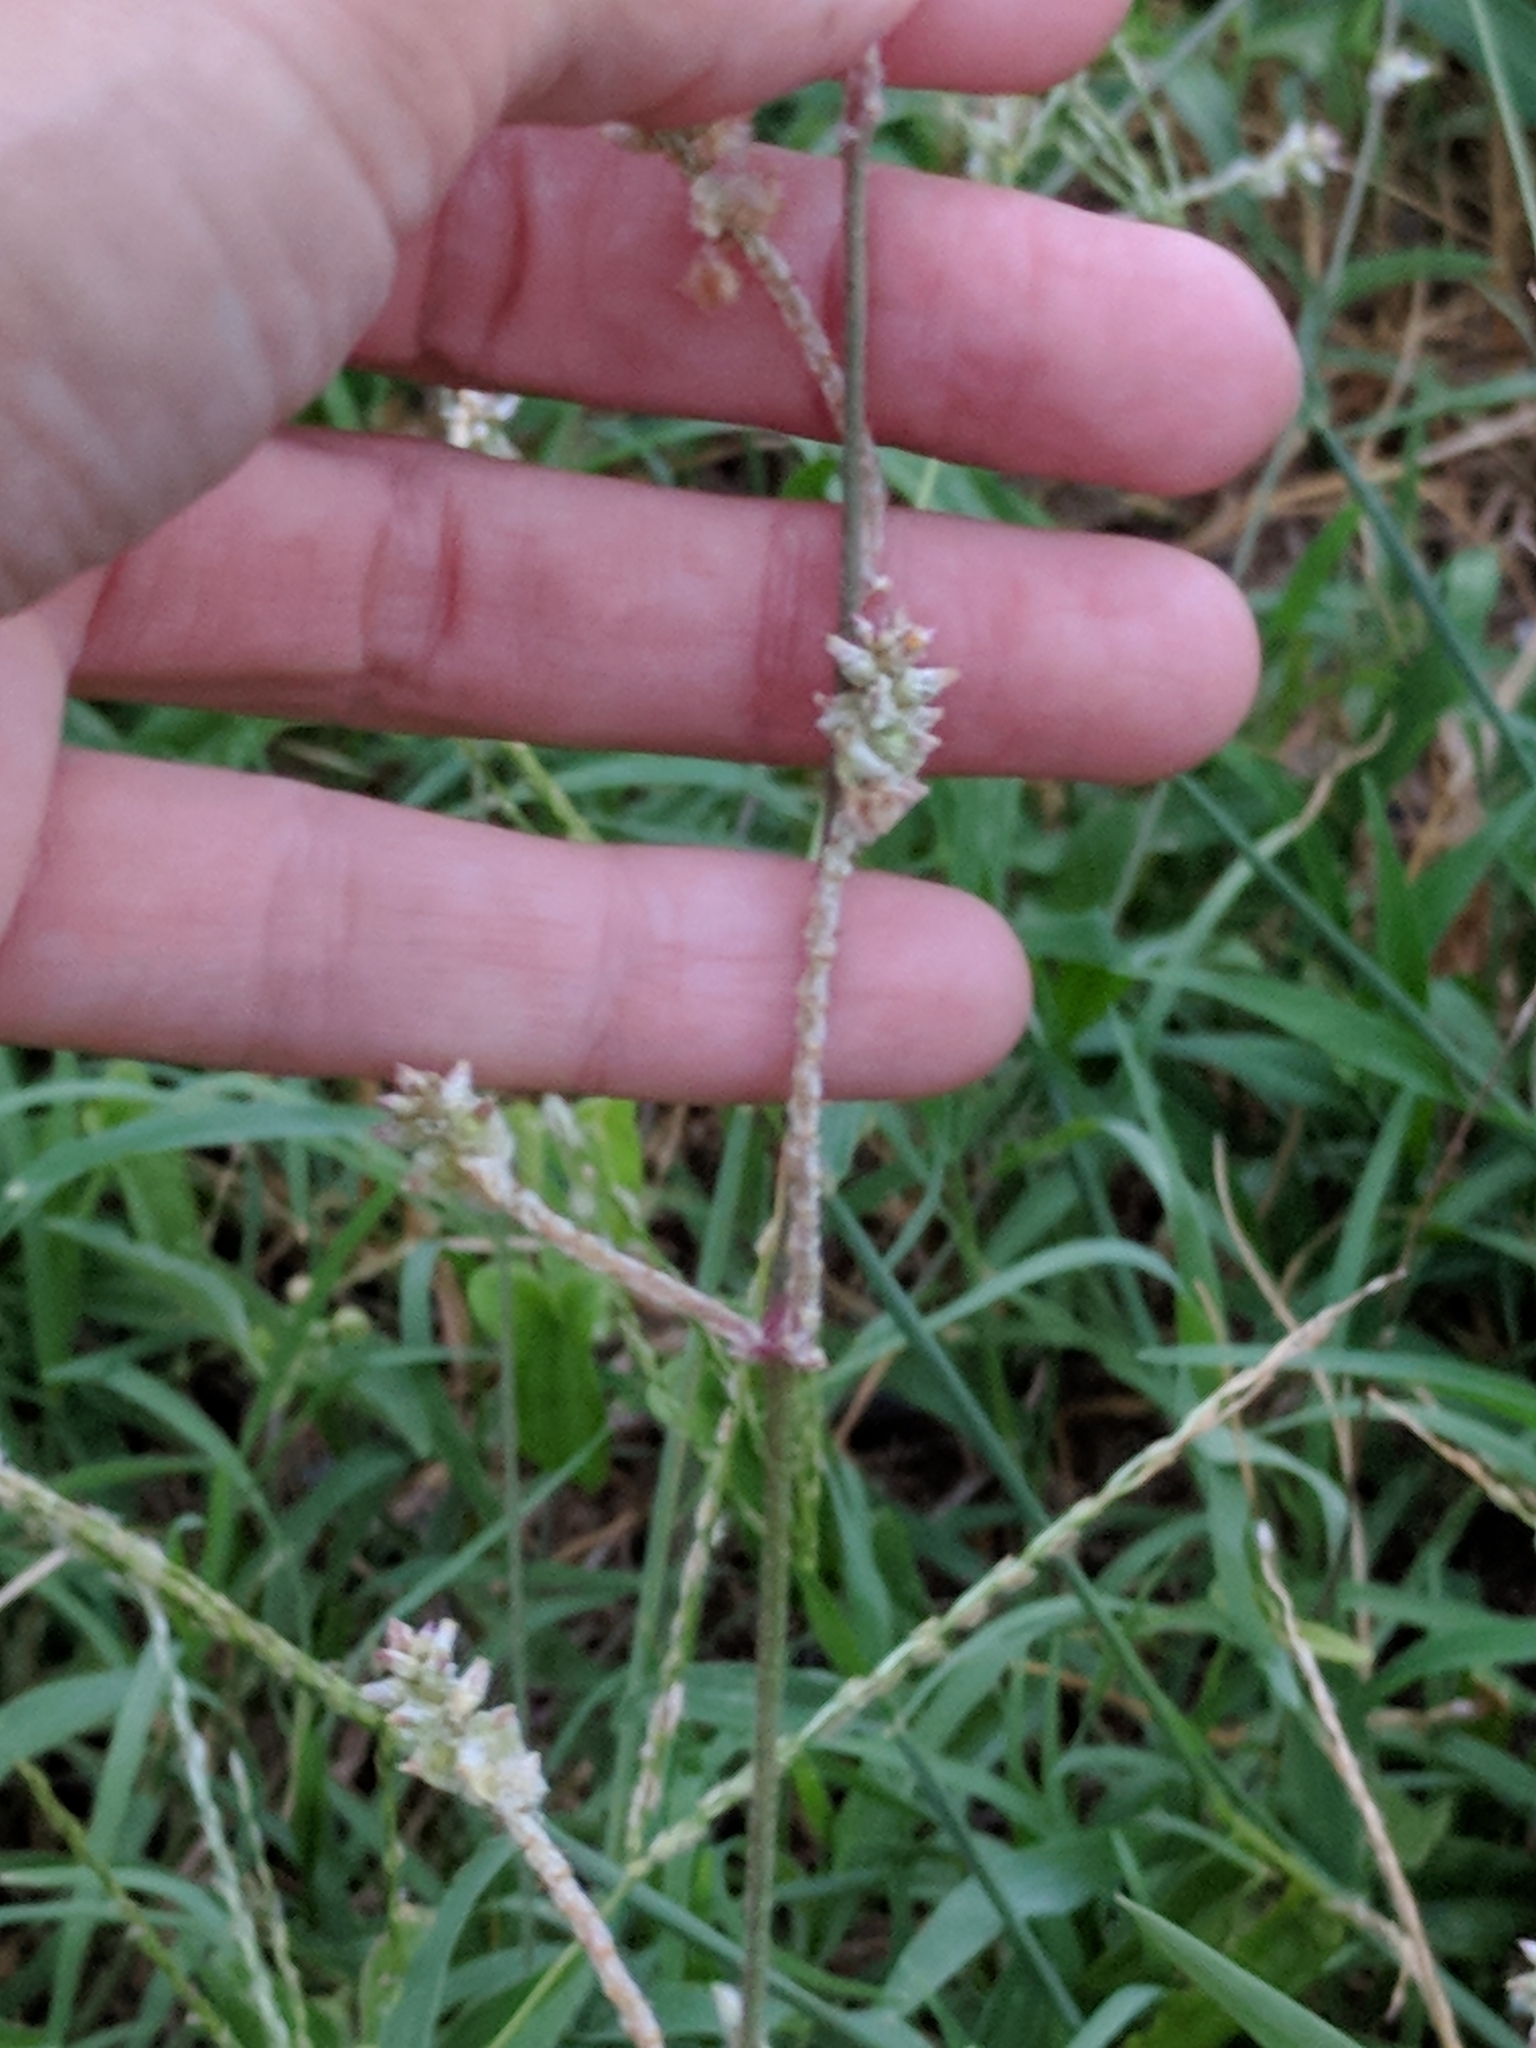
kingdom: Plantae
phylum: Tracheophyta
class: Magnoliopsida
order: Caryophyllales
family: Amaranthaceae
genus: Froelichia
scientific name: Froelichia gracilis
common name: Slender cottonweed
